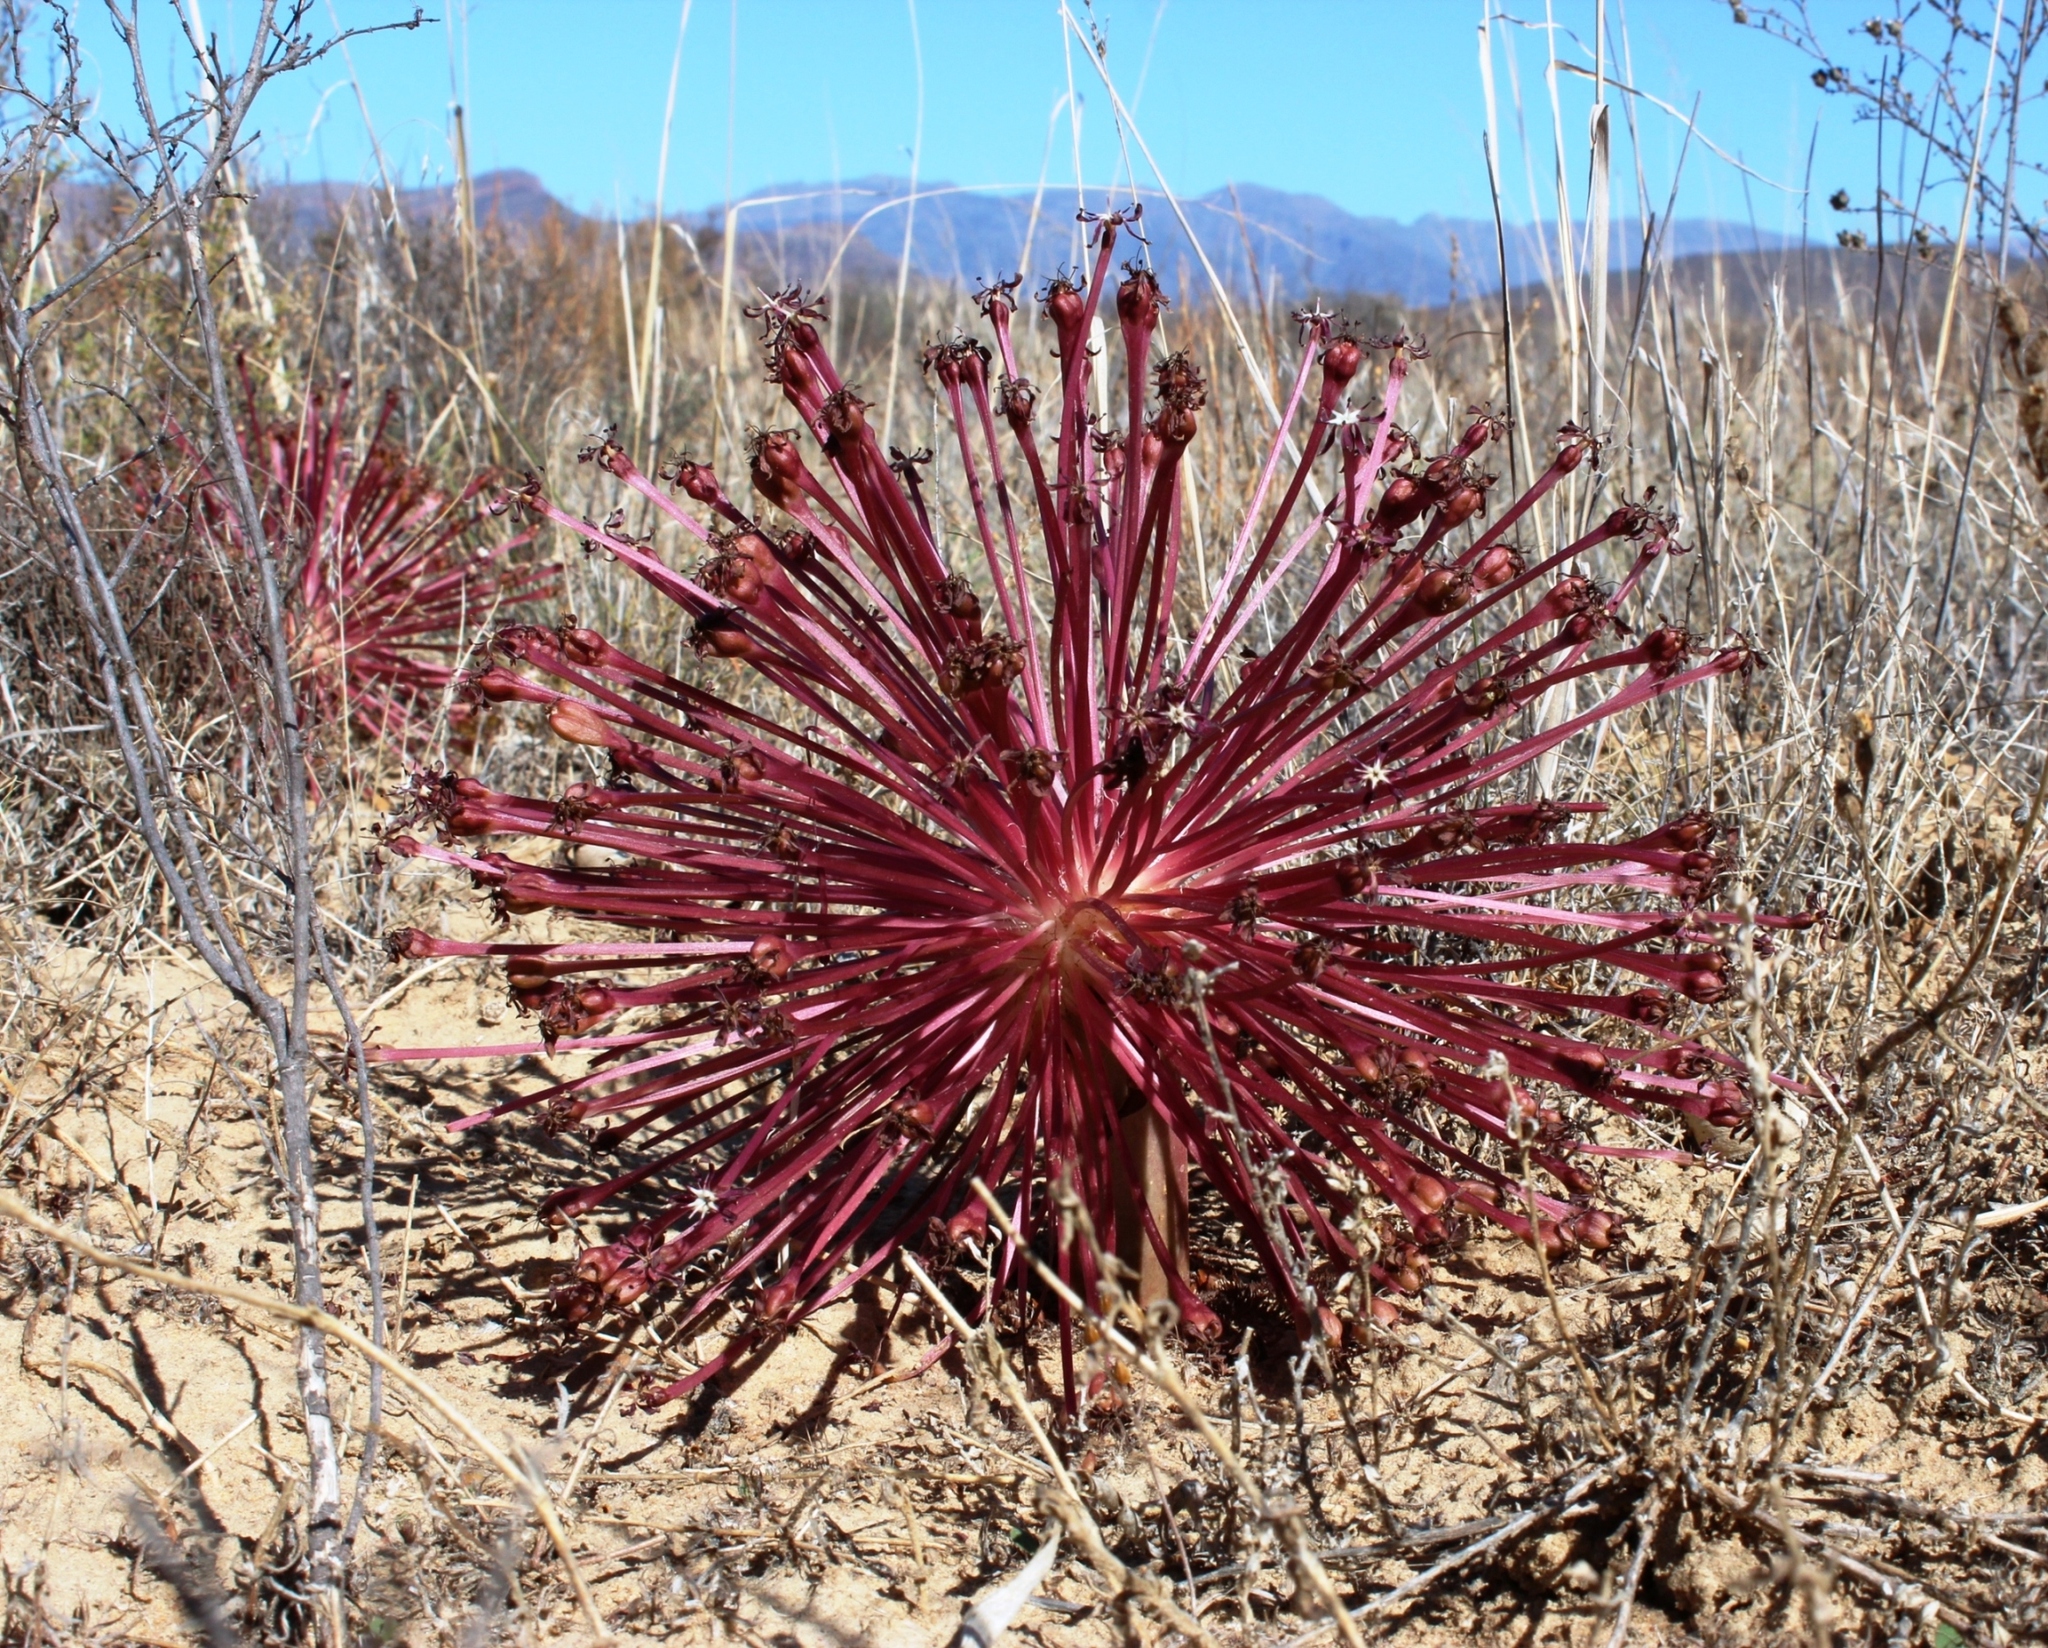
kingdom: Plantae
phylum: Tracheophyta
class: Liliopsida
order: Asparagales
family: Amaryllidaceae
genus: Crossyne
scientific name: Crossyne guttata
